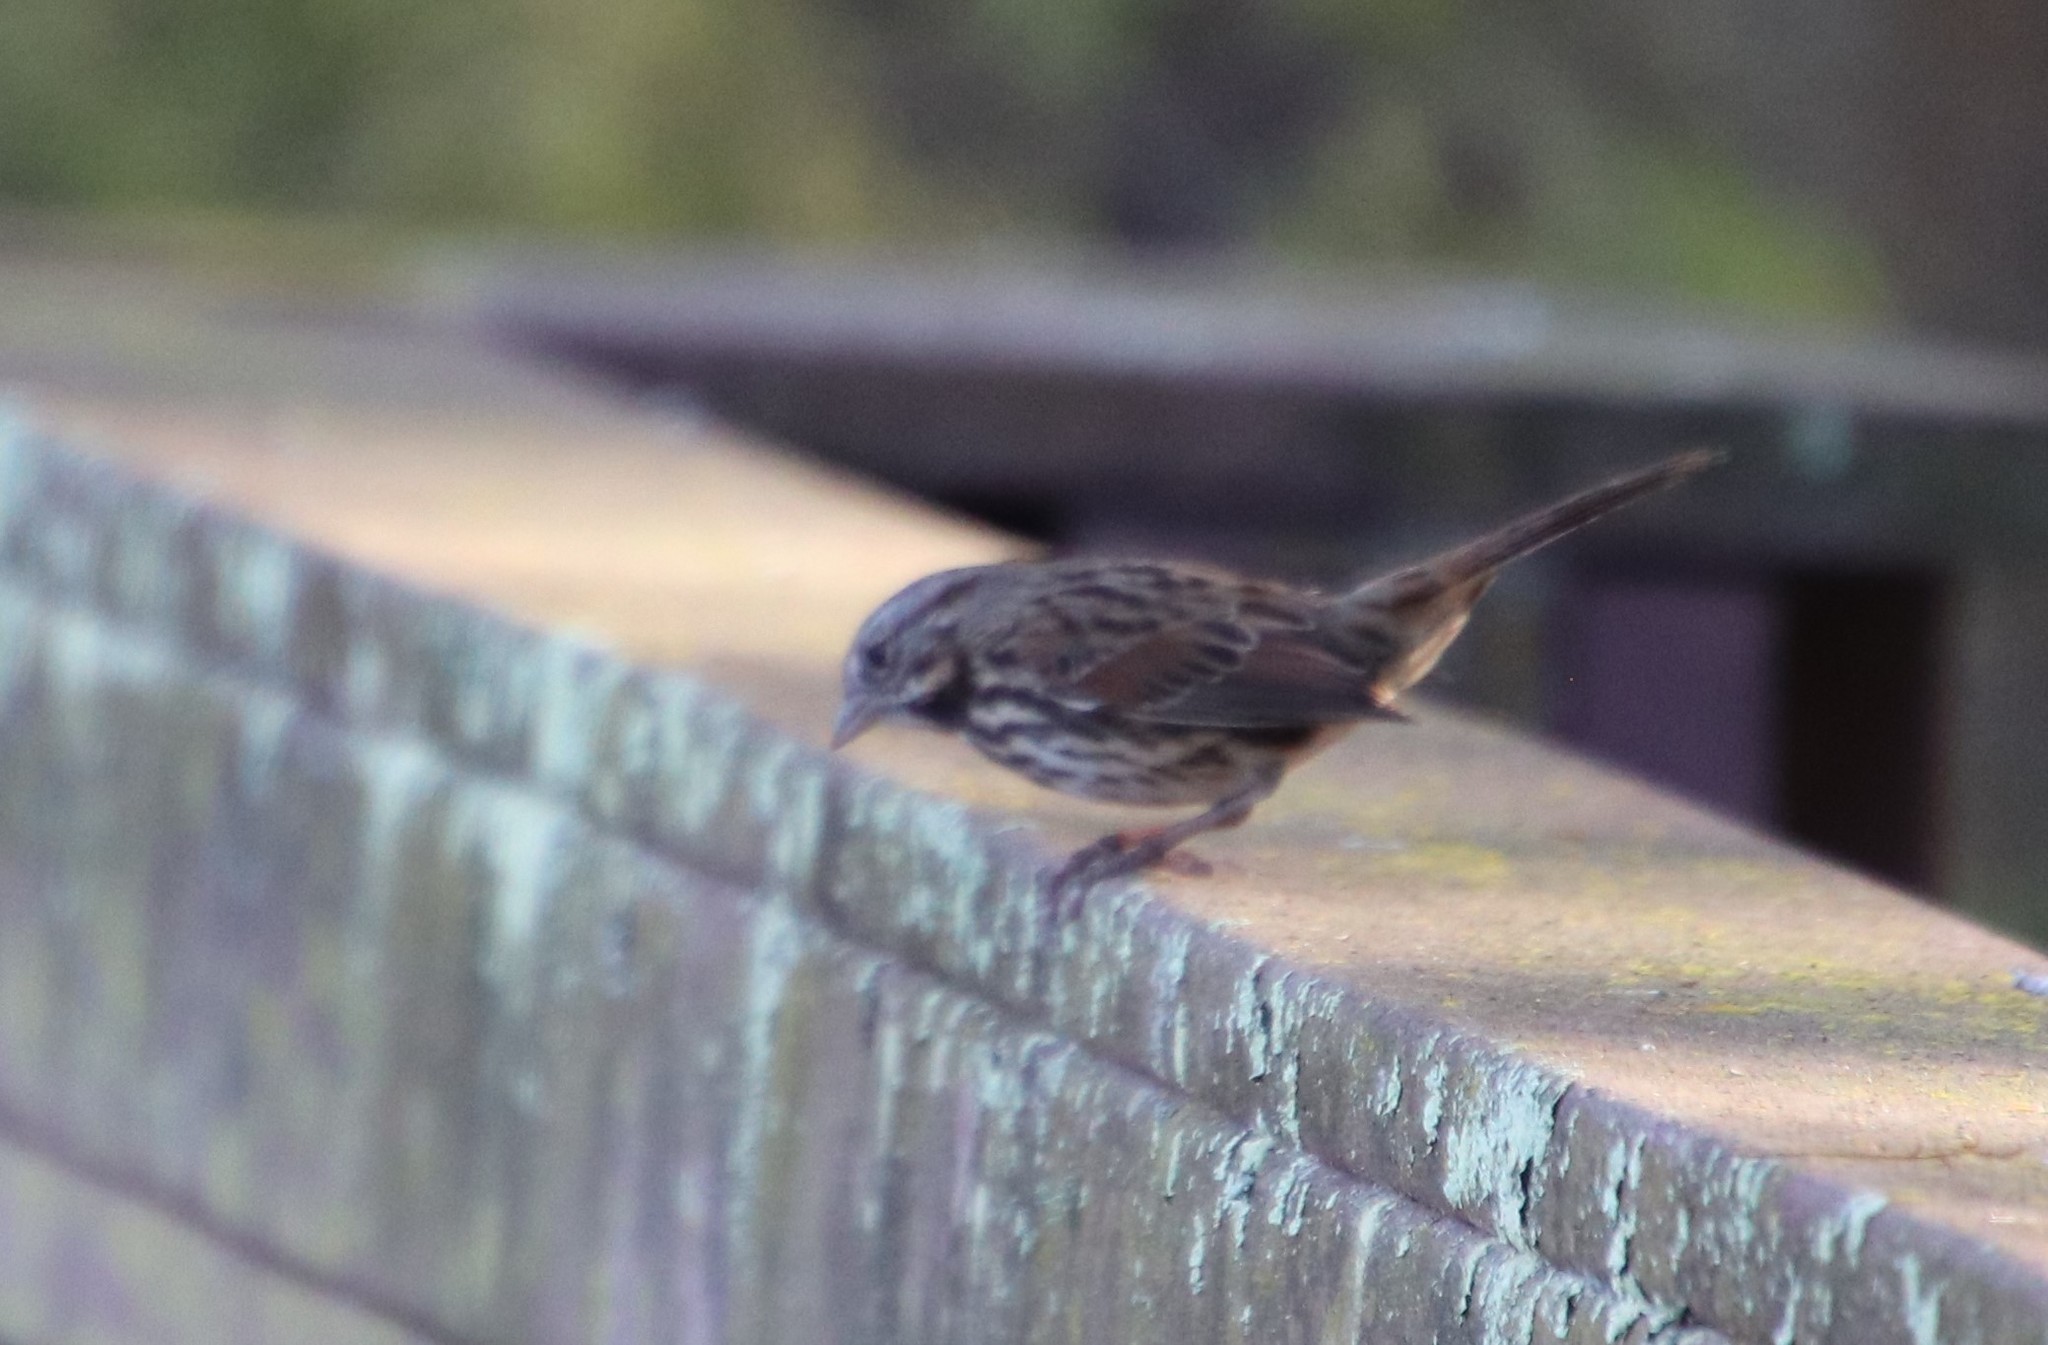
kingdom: Animalia
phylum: Chordata
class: Aves
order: Passeriformes
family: Passerellidae
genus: Melospiza
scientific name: Melospiza melodia
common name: Song sparrow
